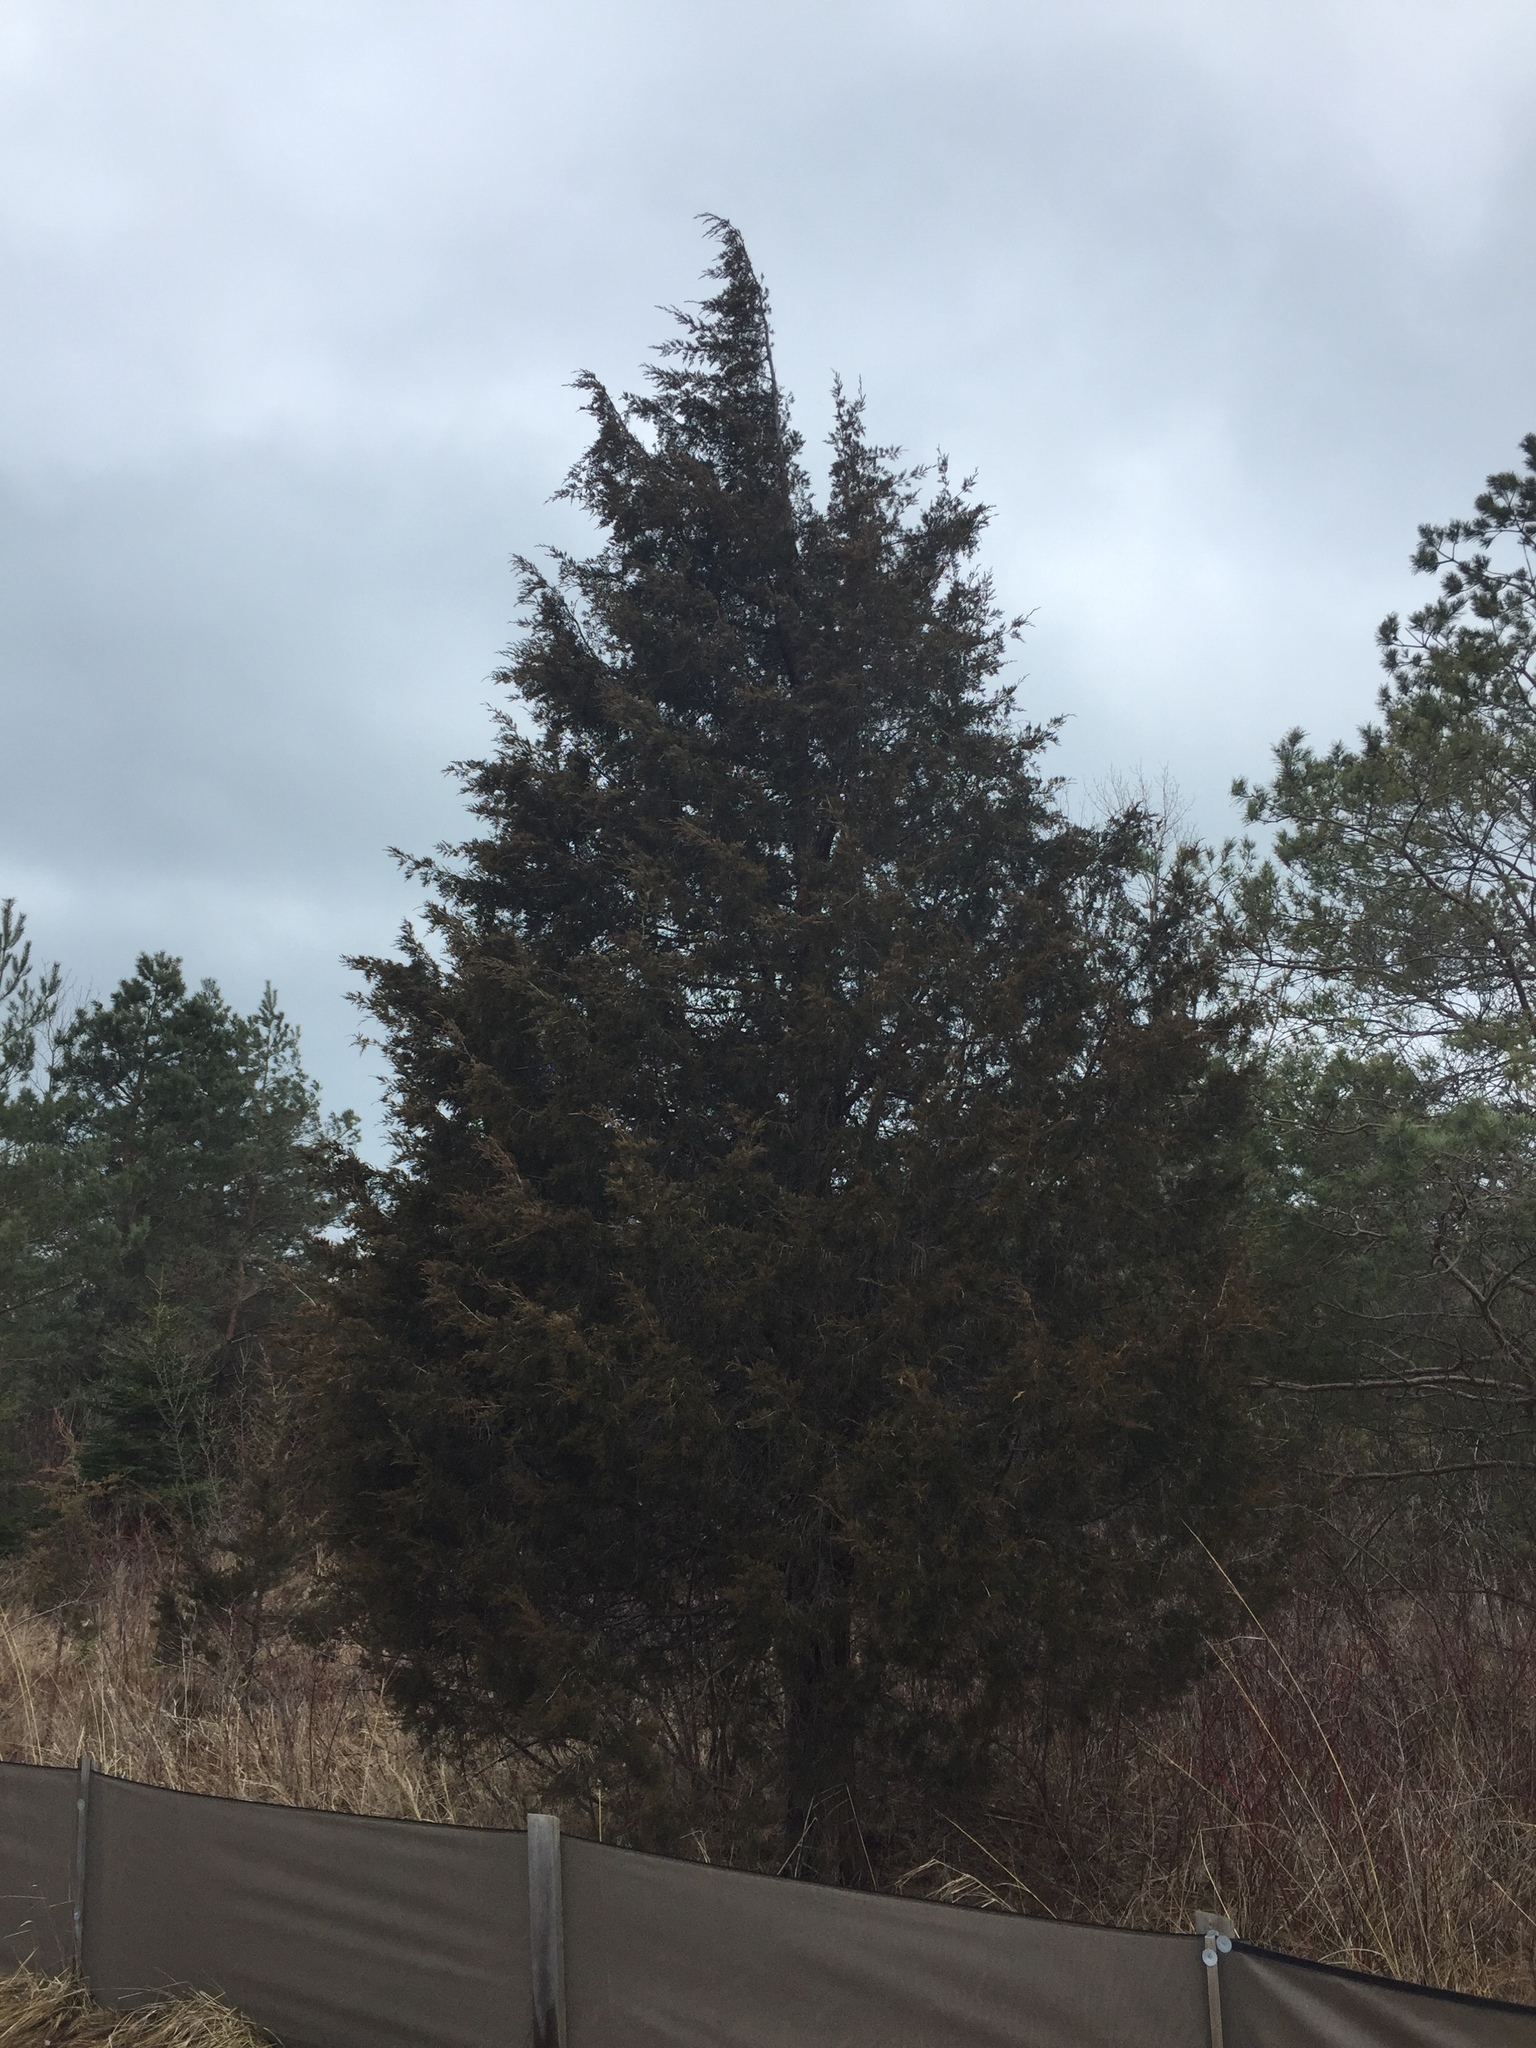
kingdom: Plantae
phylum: Tracheophyta
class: Pinopsida
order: Pinales
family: Cupressaceae
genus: Juniperus
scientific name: Juniperus virginiana
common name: Red juniper
